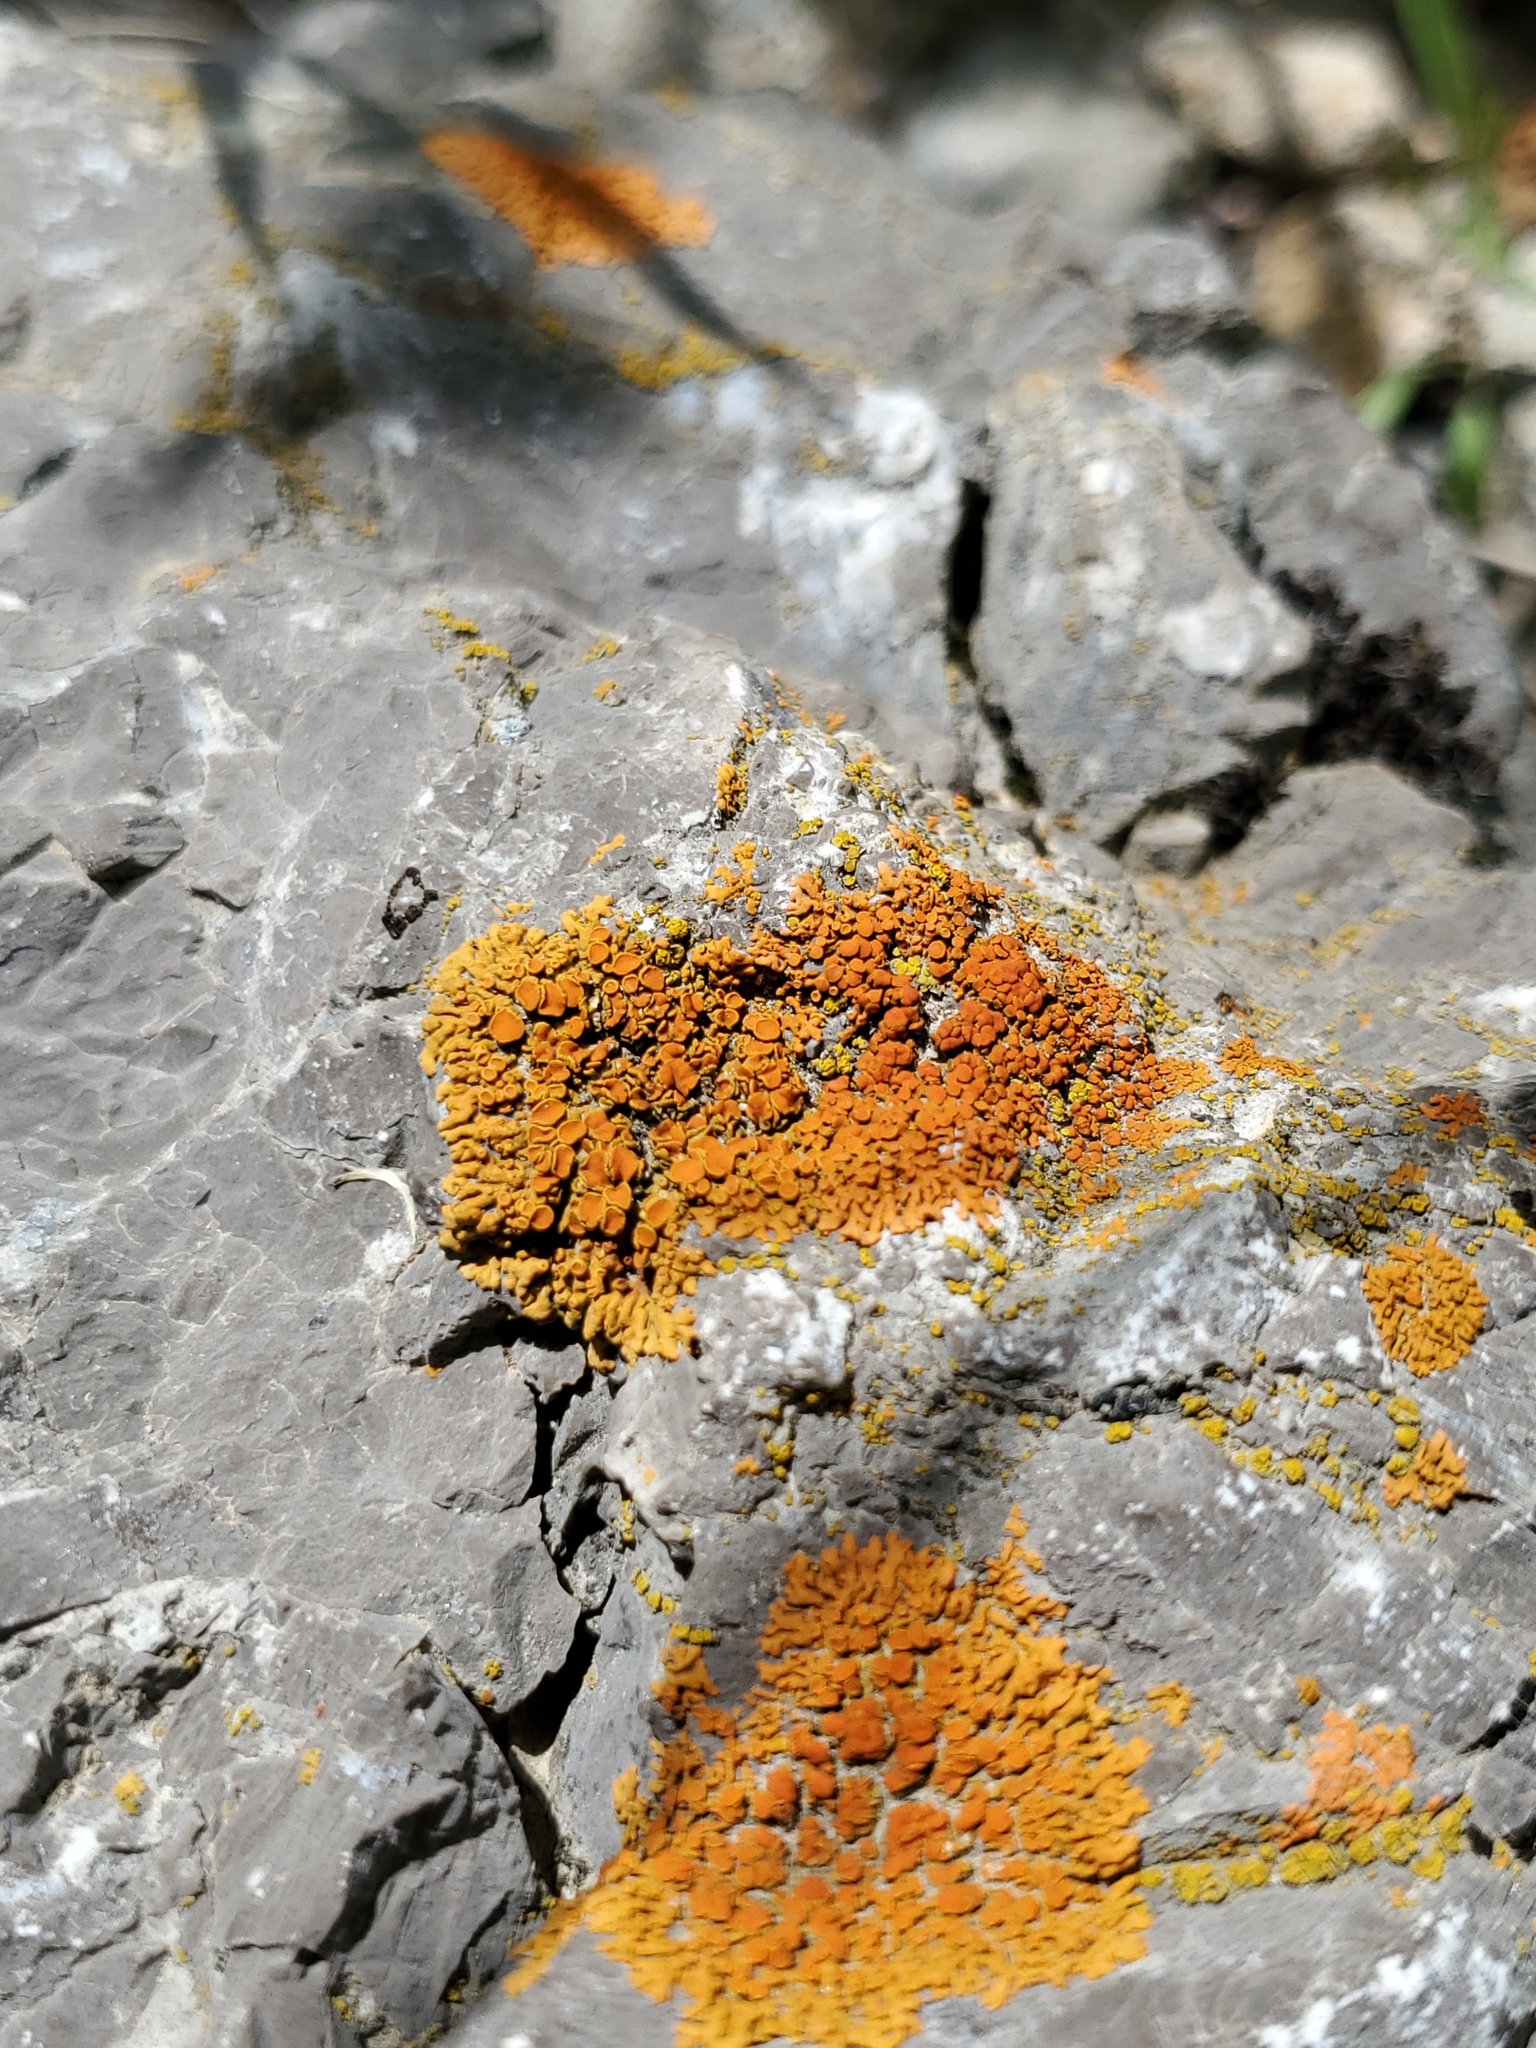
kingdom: Fungi
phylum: Ascomycota
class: Lecanoromycetes
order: Teloschistales
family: Teloschistaceae
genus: Xanthoria
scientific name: Xanthoria elegans
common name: Elegant sunburst lichen
